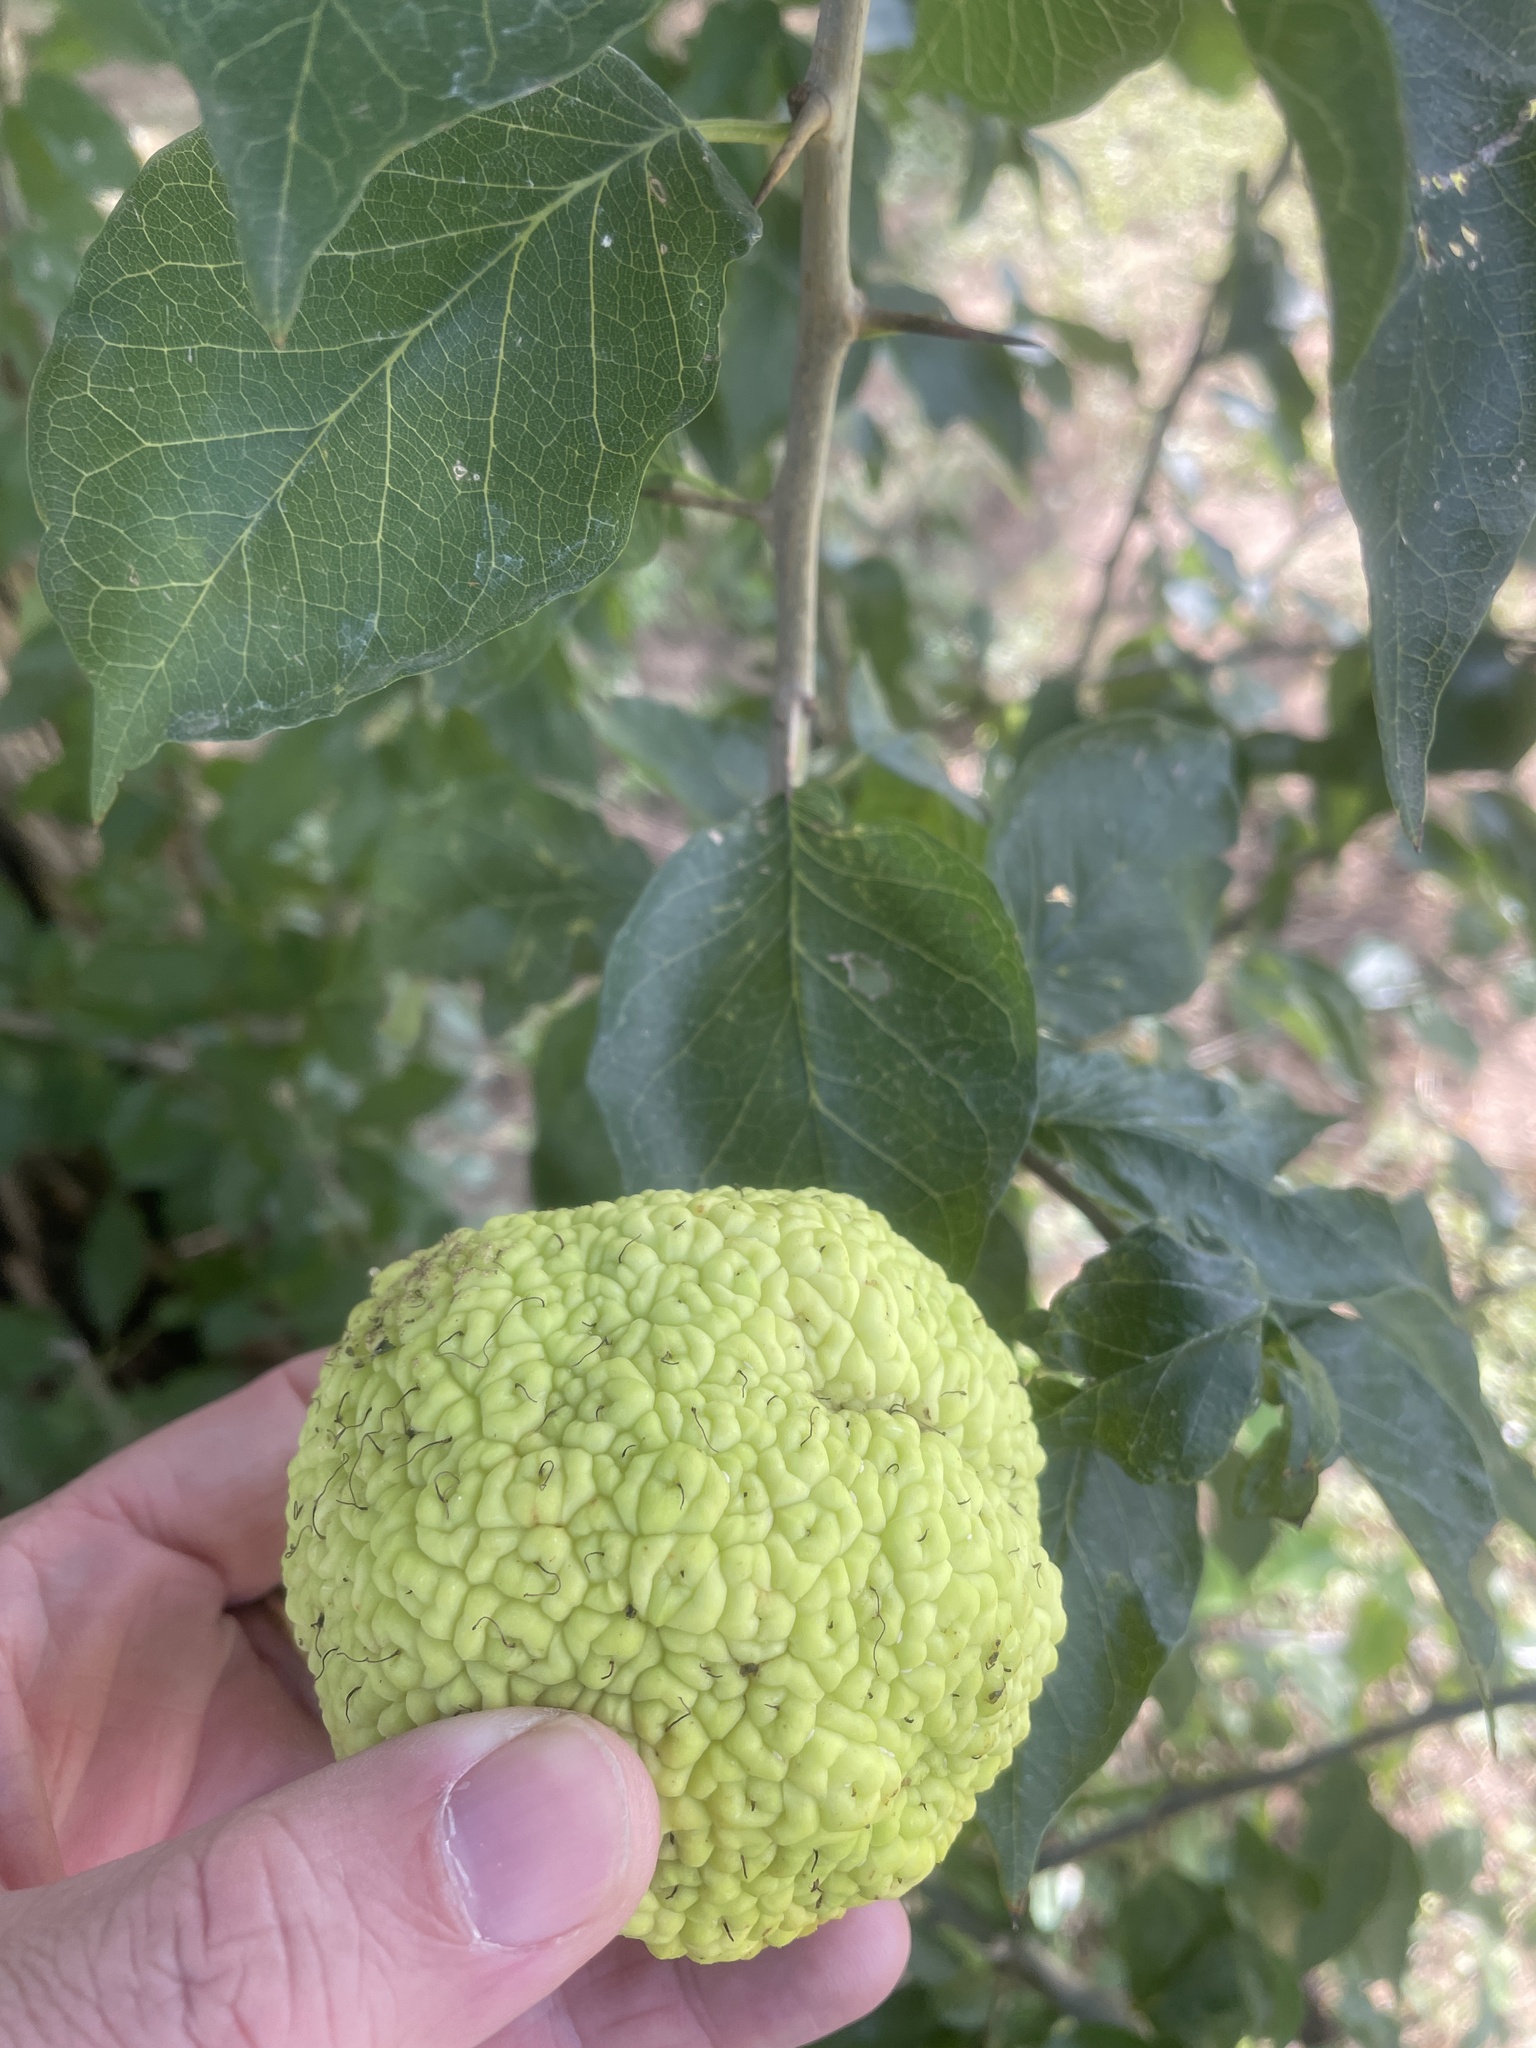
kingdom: Plantae
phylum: Tracheophyta
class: Magnoliopsida
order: Rosales
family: Moraceae
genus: Maclura
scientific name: Maclura pomifera
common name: Osage-orange
